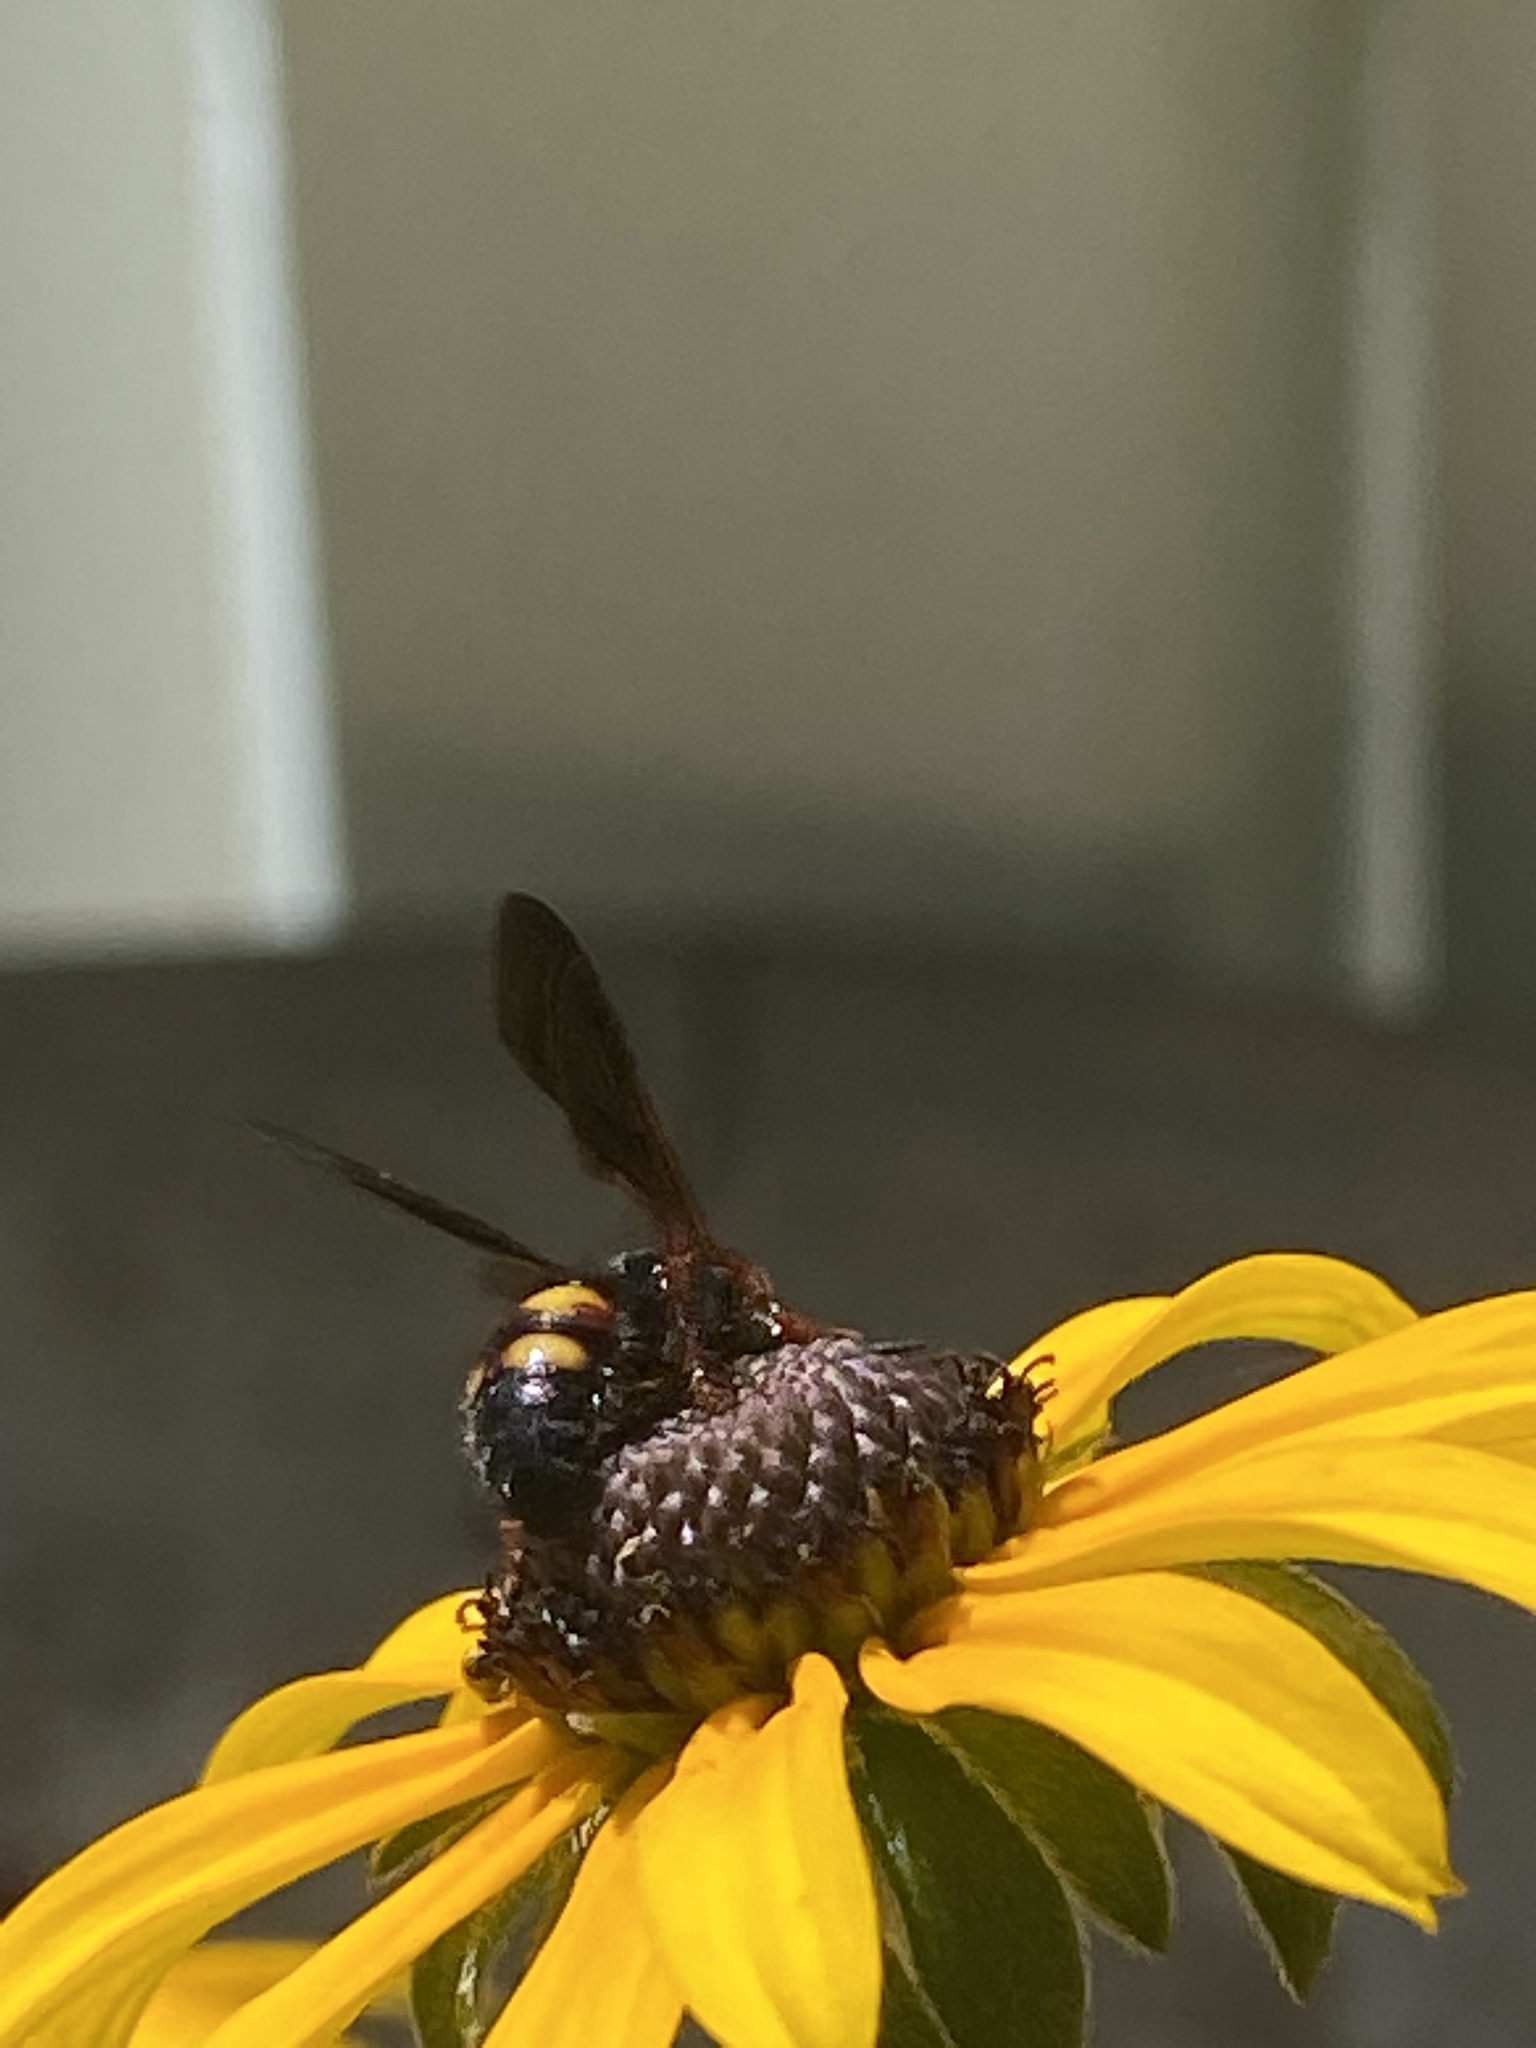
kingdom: Animalia
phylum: Arthropoda
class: Insecta
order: Hymenoptera
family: Scoliidae
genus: Scolia
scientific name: Scolia nobilitata
